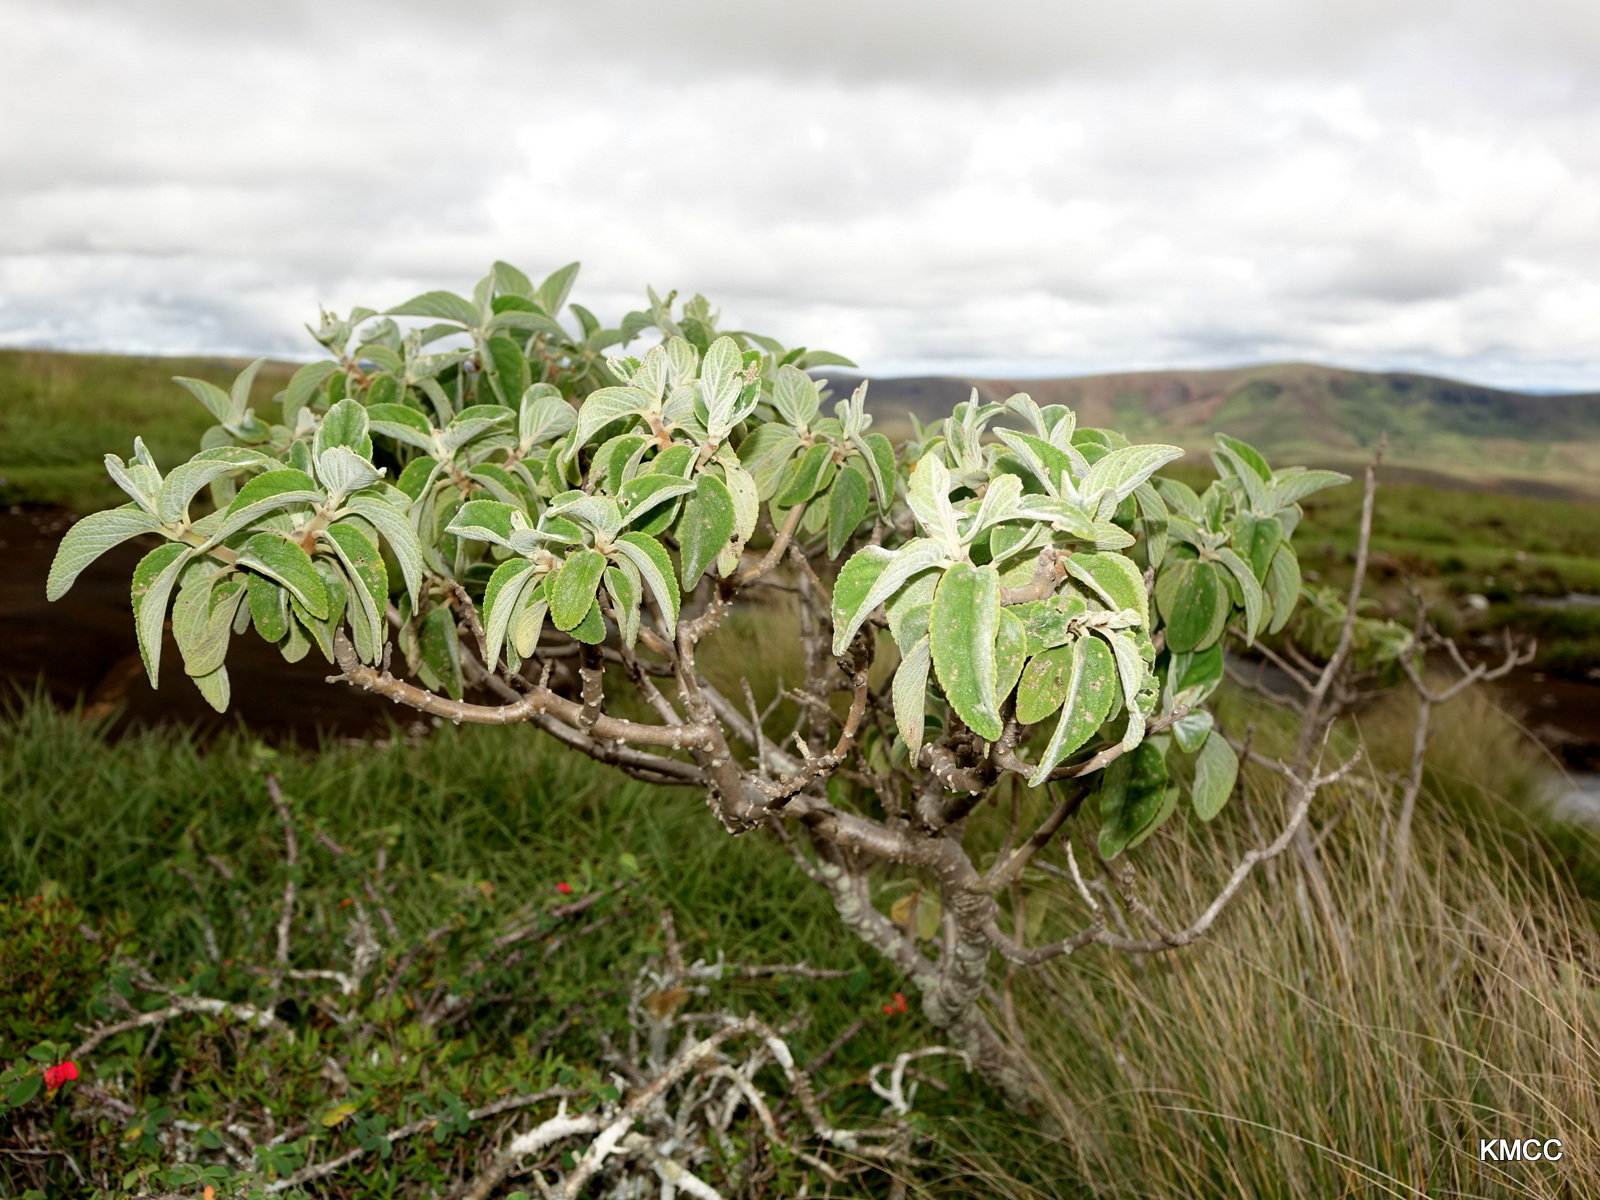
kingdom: Plantae
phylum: Tracheophyta
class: Magnoliopsida
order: Lamiales
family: Lamiaceae
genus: Tetradenia
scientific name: Tetradenia goudotii
